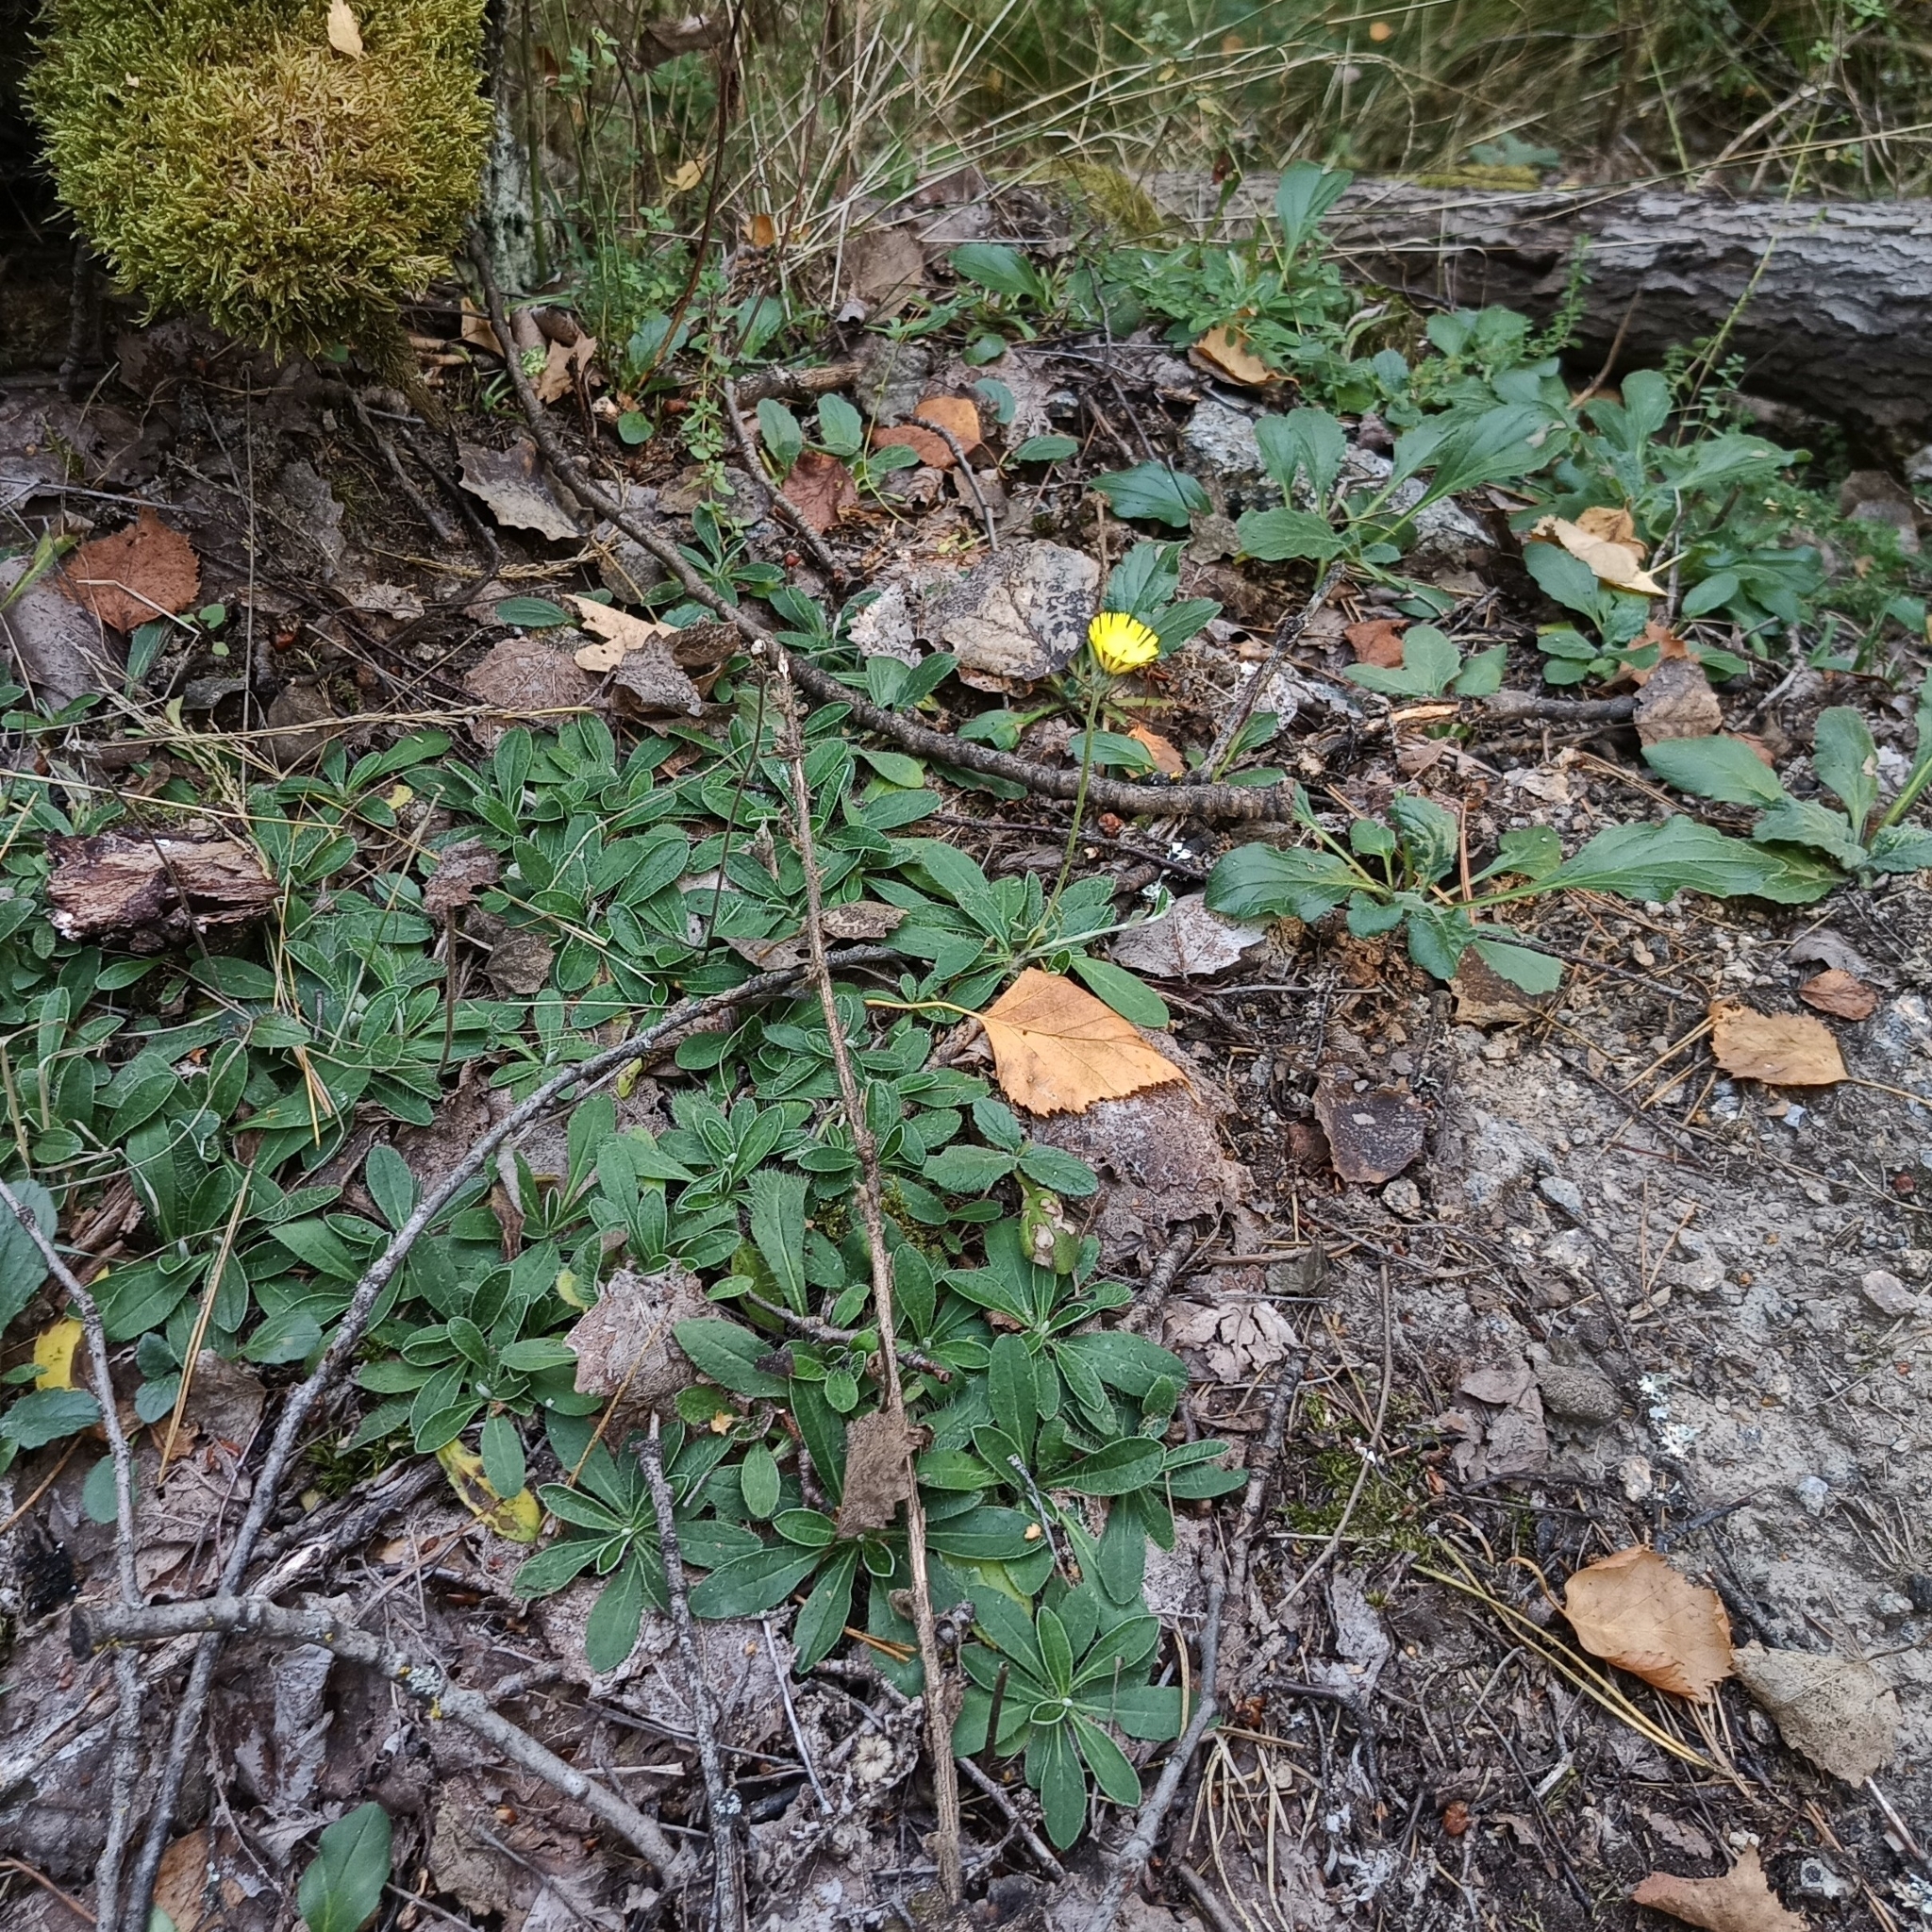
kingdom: Plantae
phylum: Tracheophyta
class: Magnoliopsida
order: Asterales
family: Asteraceae
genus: Pilosella
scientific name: Pilosella officinarum
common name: Mouse-ear hawkweed
